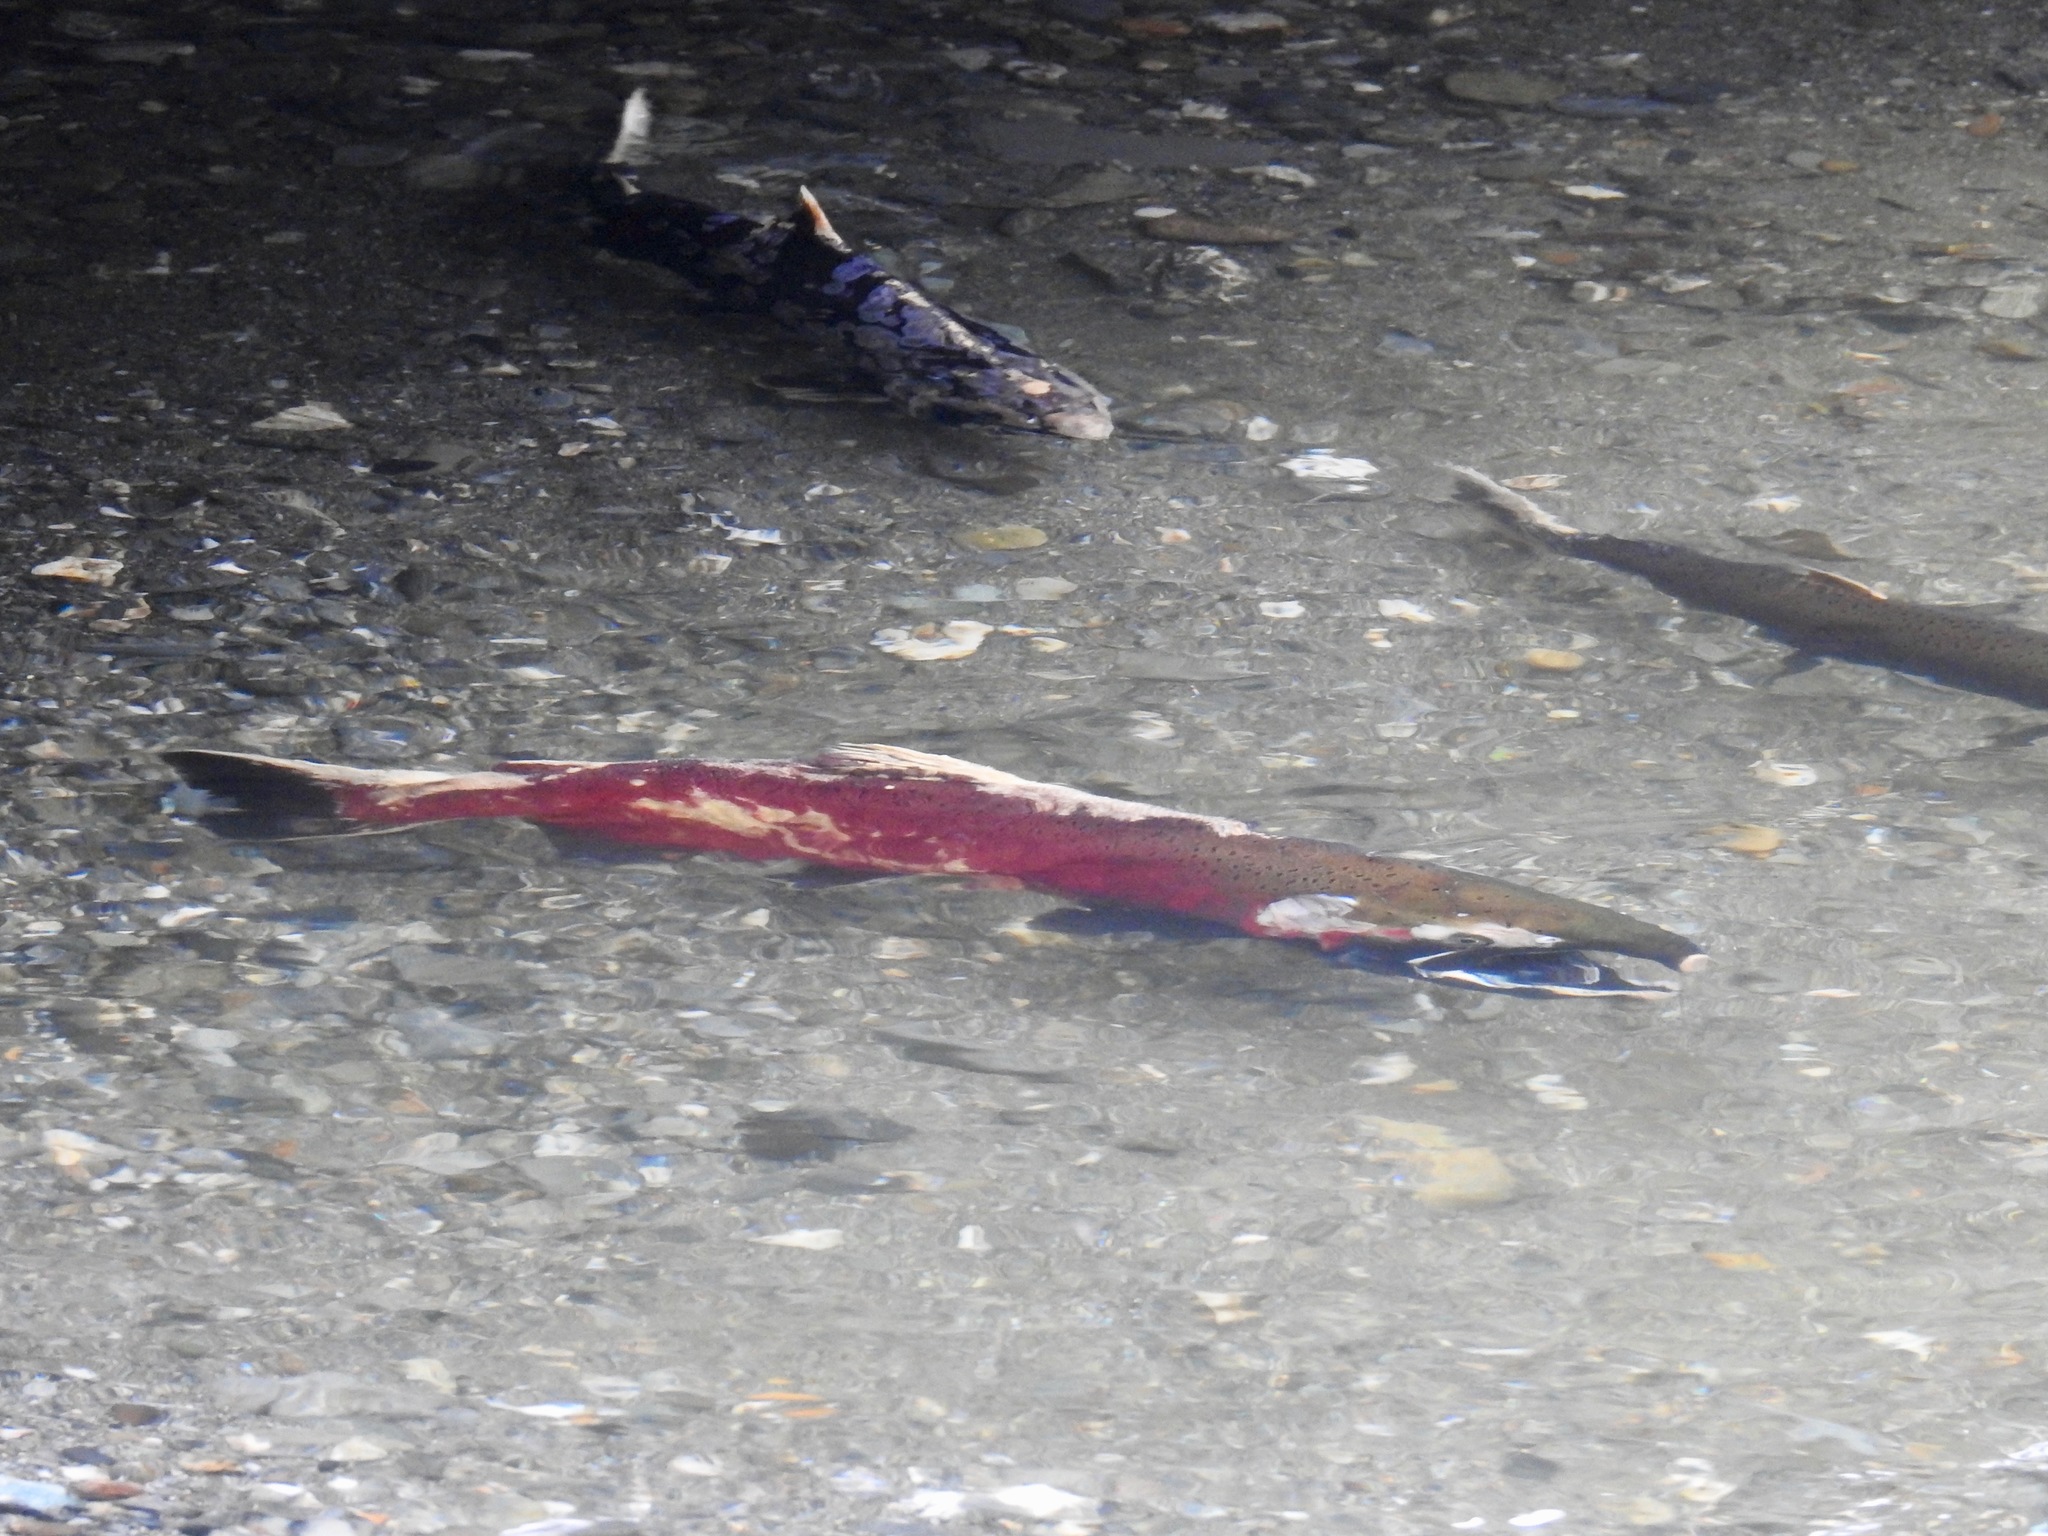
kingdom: Animalia
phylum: Chordata
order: Salmoniformes
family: Salmonidae
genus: Oncorhynchus
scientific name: Oncorhynchus kisutch
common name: Coho salmon
